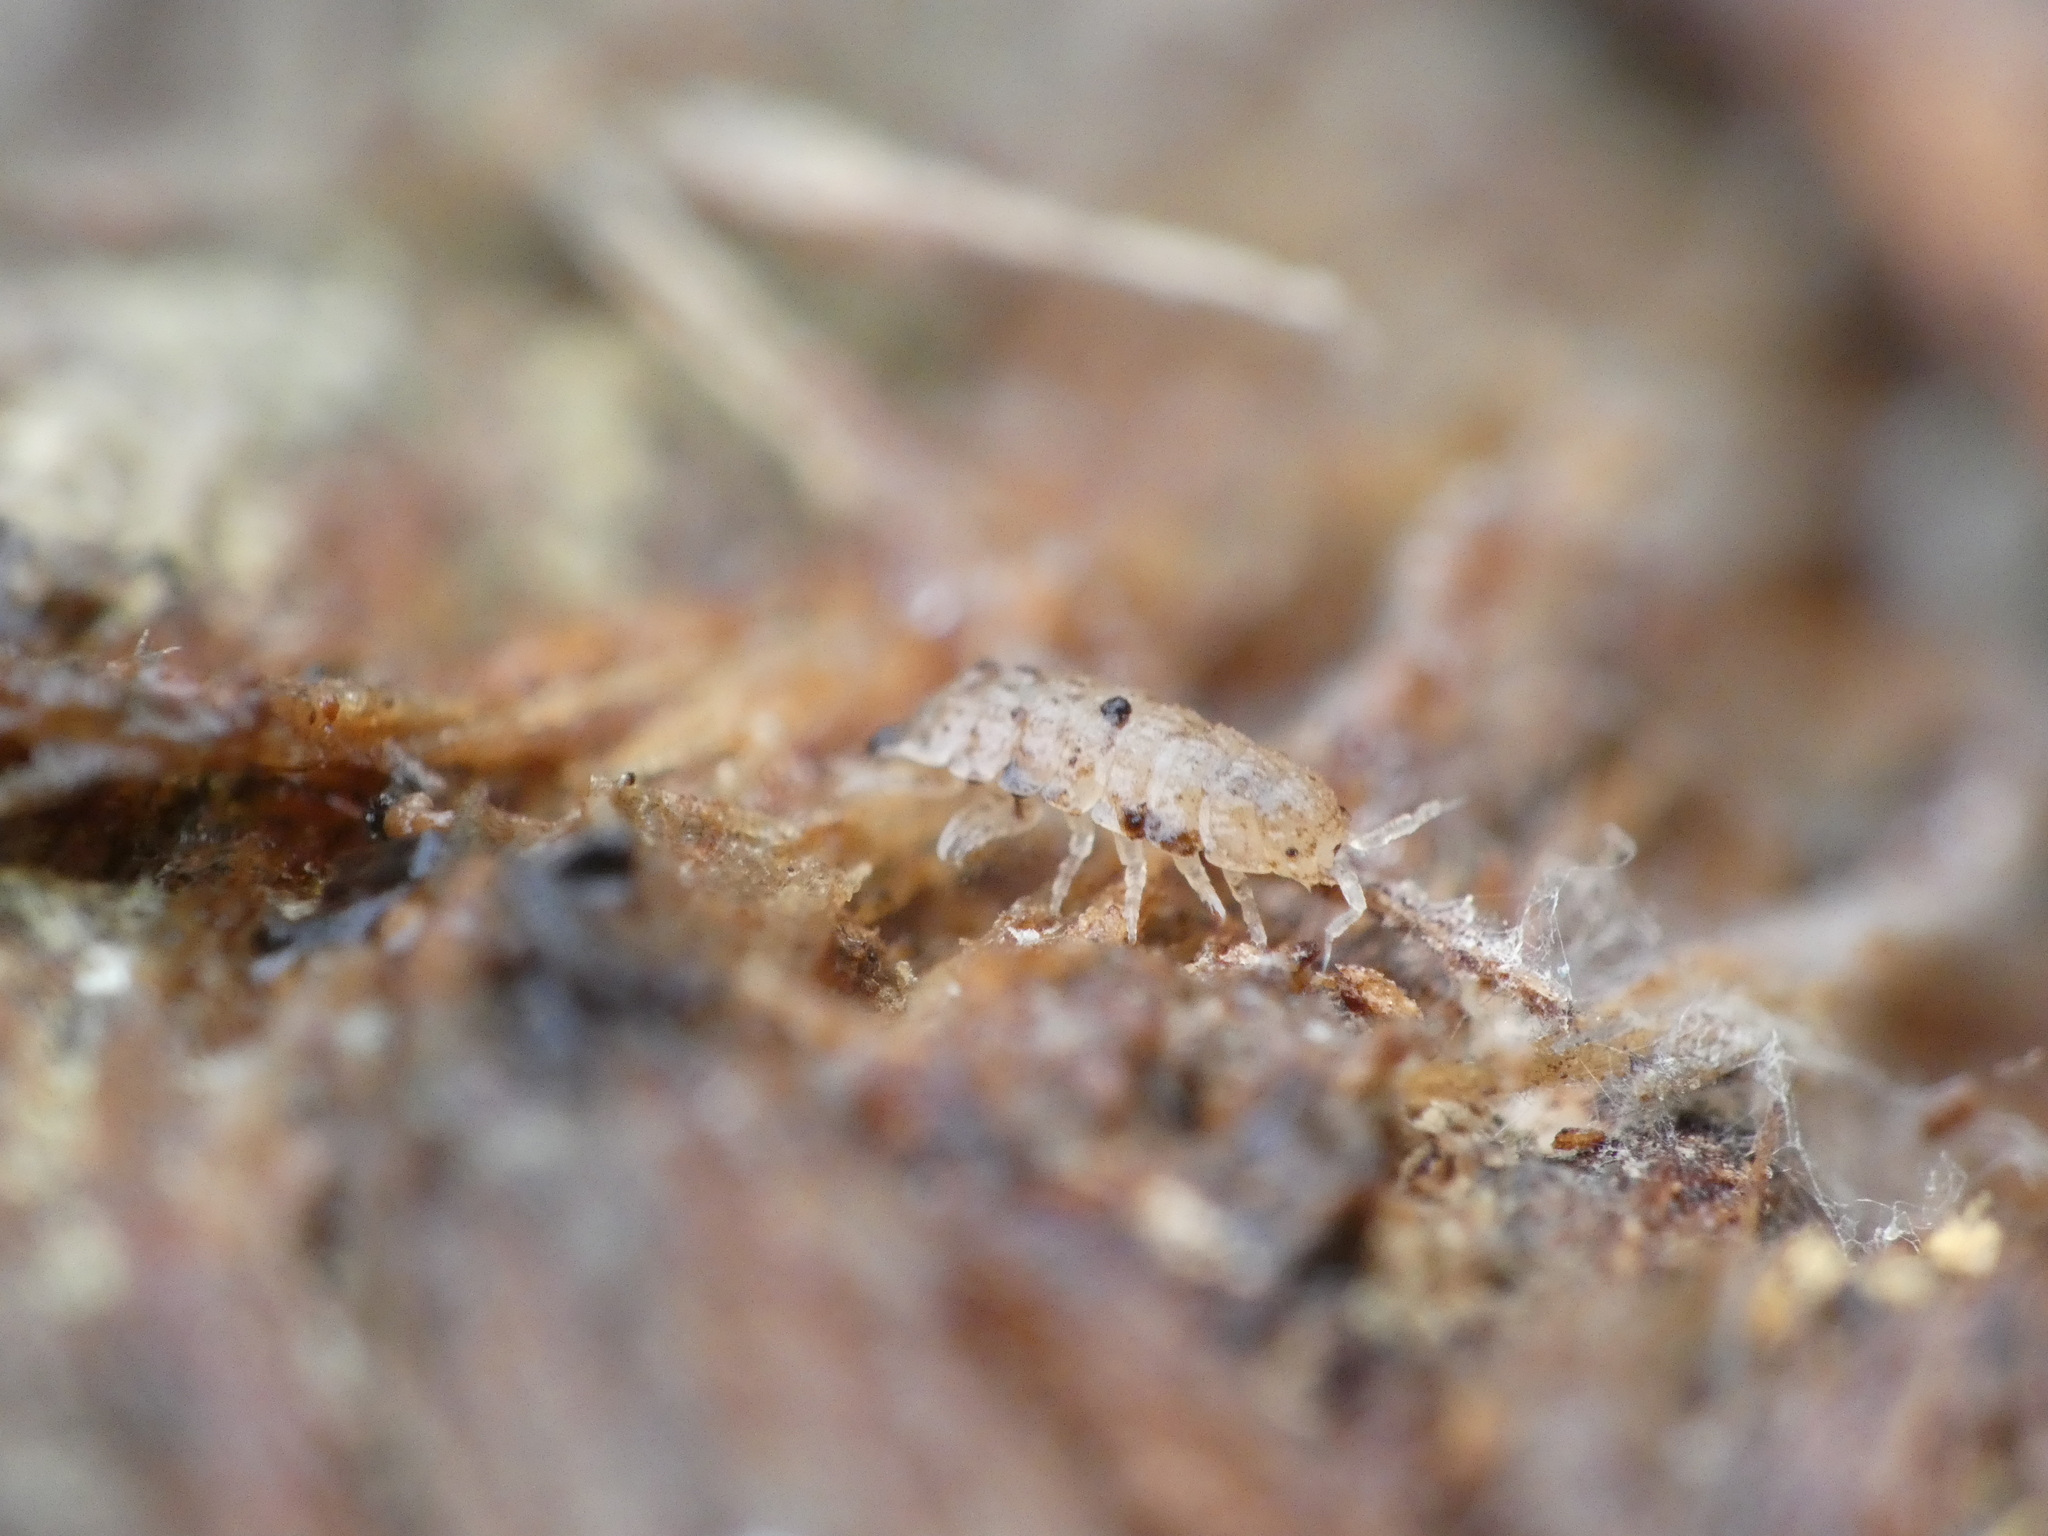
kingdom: Animalia
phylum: Arthropoda
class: Malacostraca
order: Isopoda
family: Trichoniscidae
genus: Haplophthalmus
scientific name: Haplophthalmus danicus
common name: Pillbug
